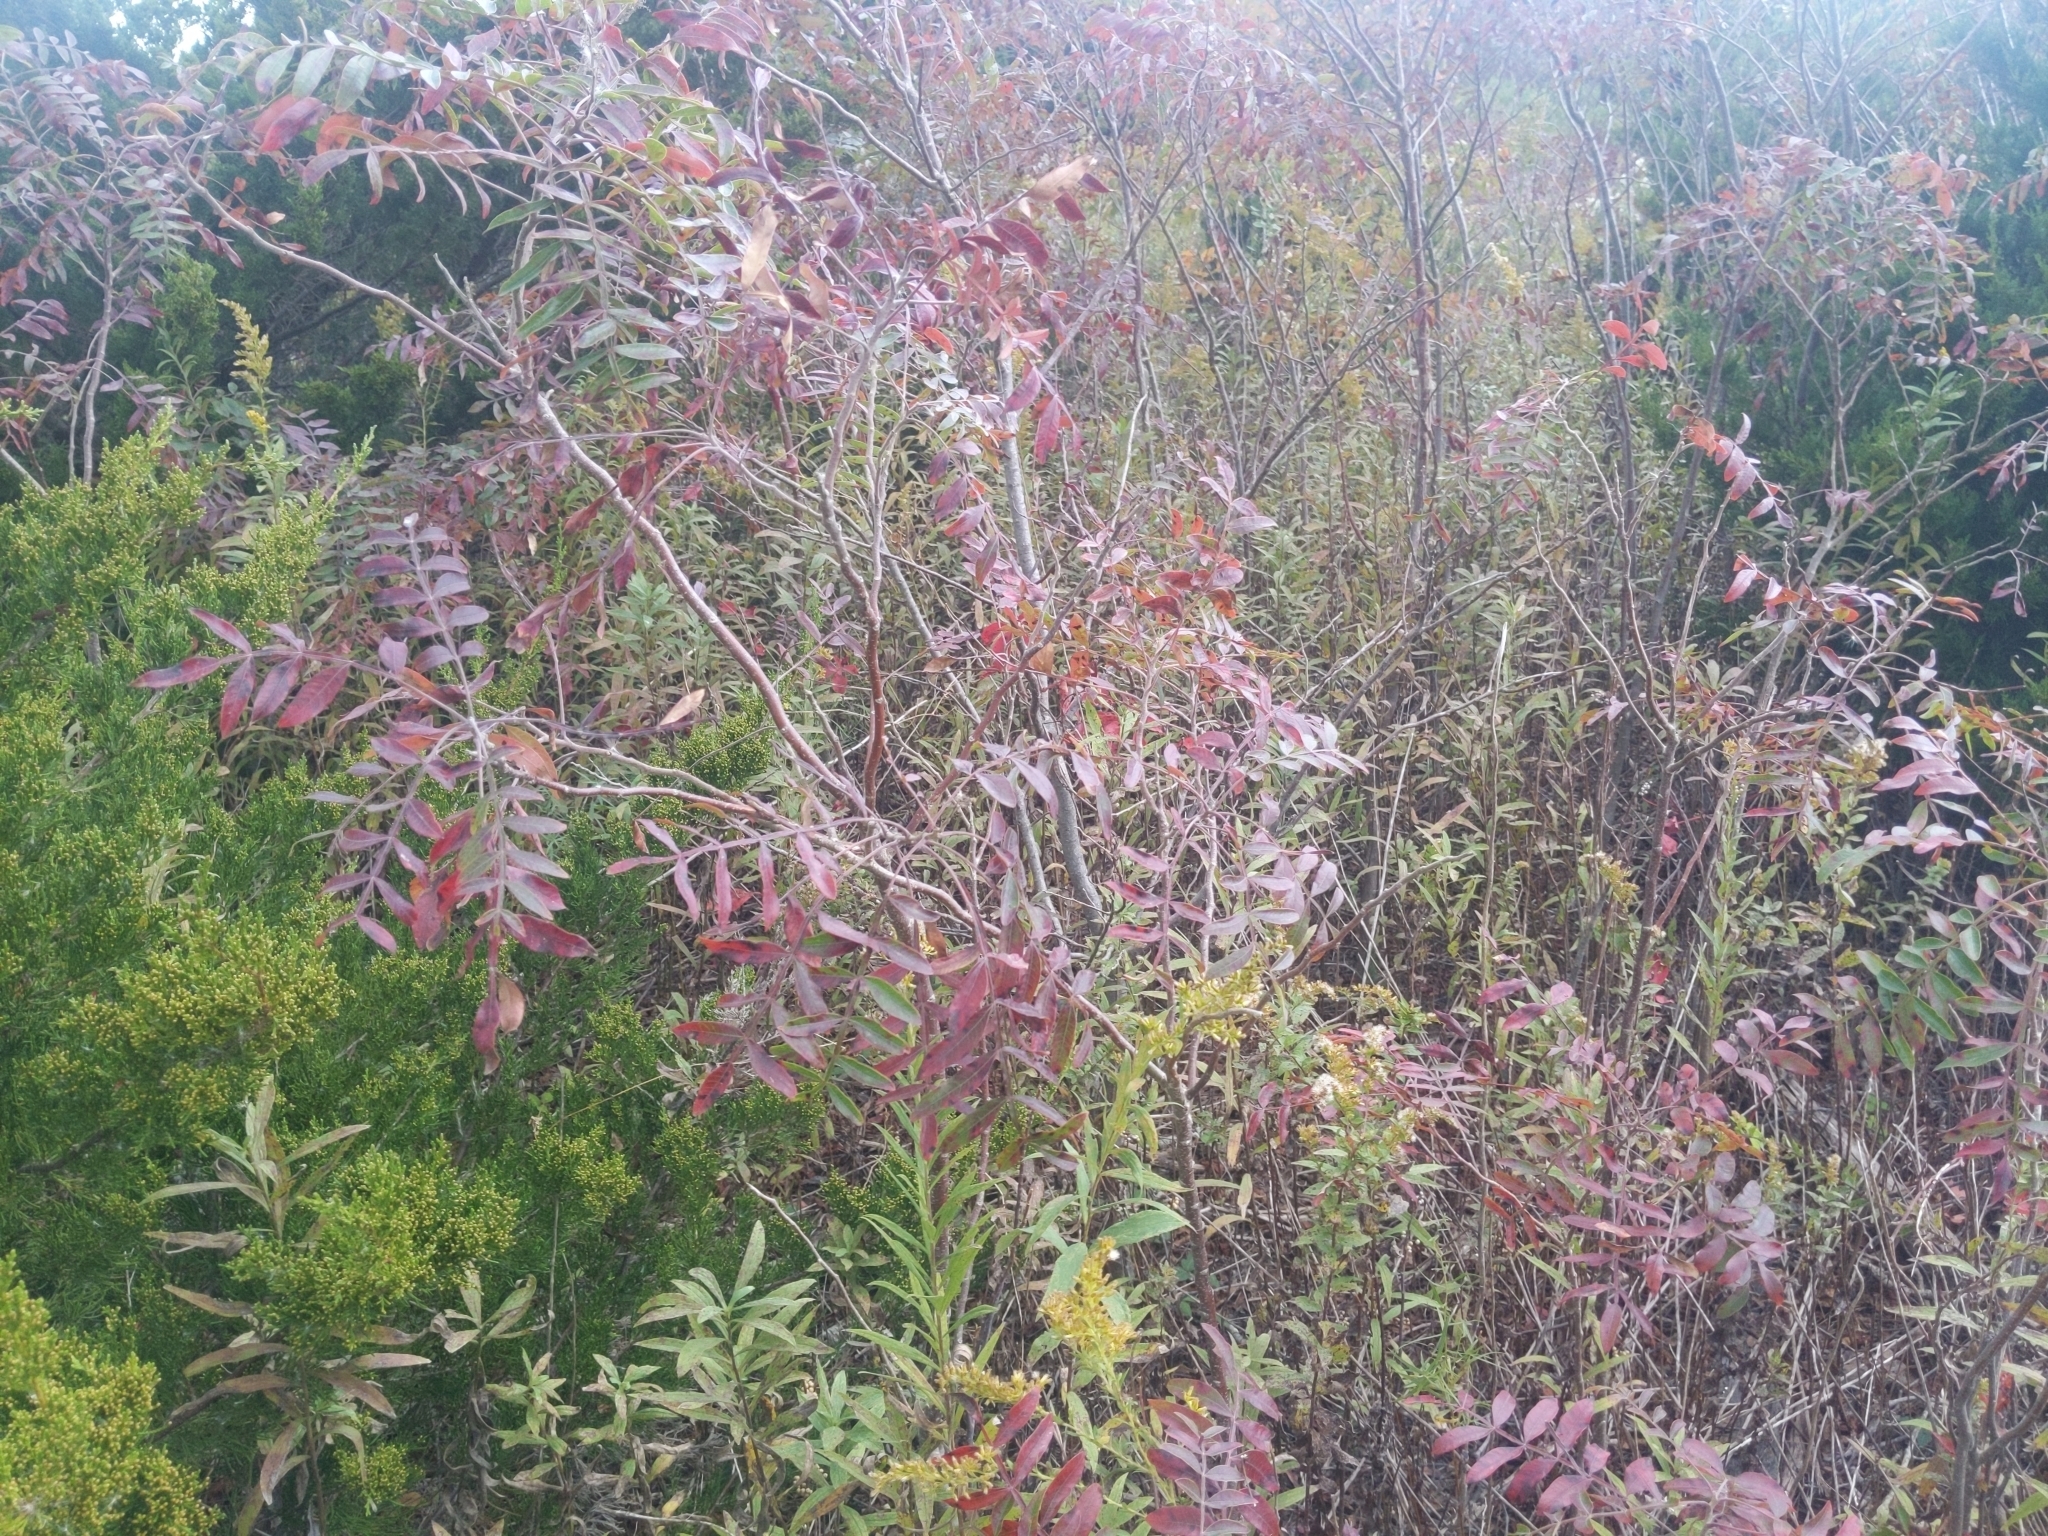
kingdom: Plantae
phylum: Tracheophyta
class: Magnoliopsida
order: Sapindales
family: Anacardiaceae
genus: Rhus
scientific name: Rhus copallina
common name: Shining sumac
